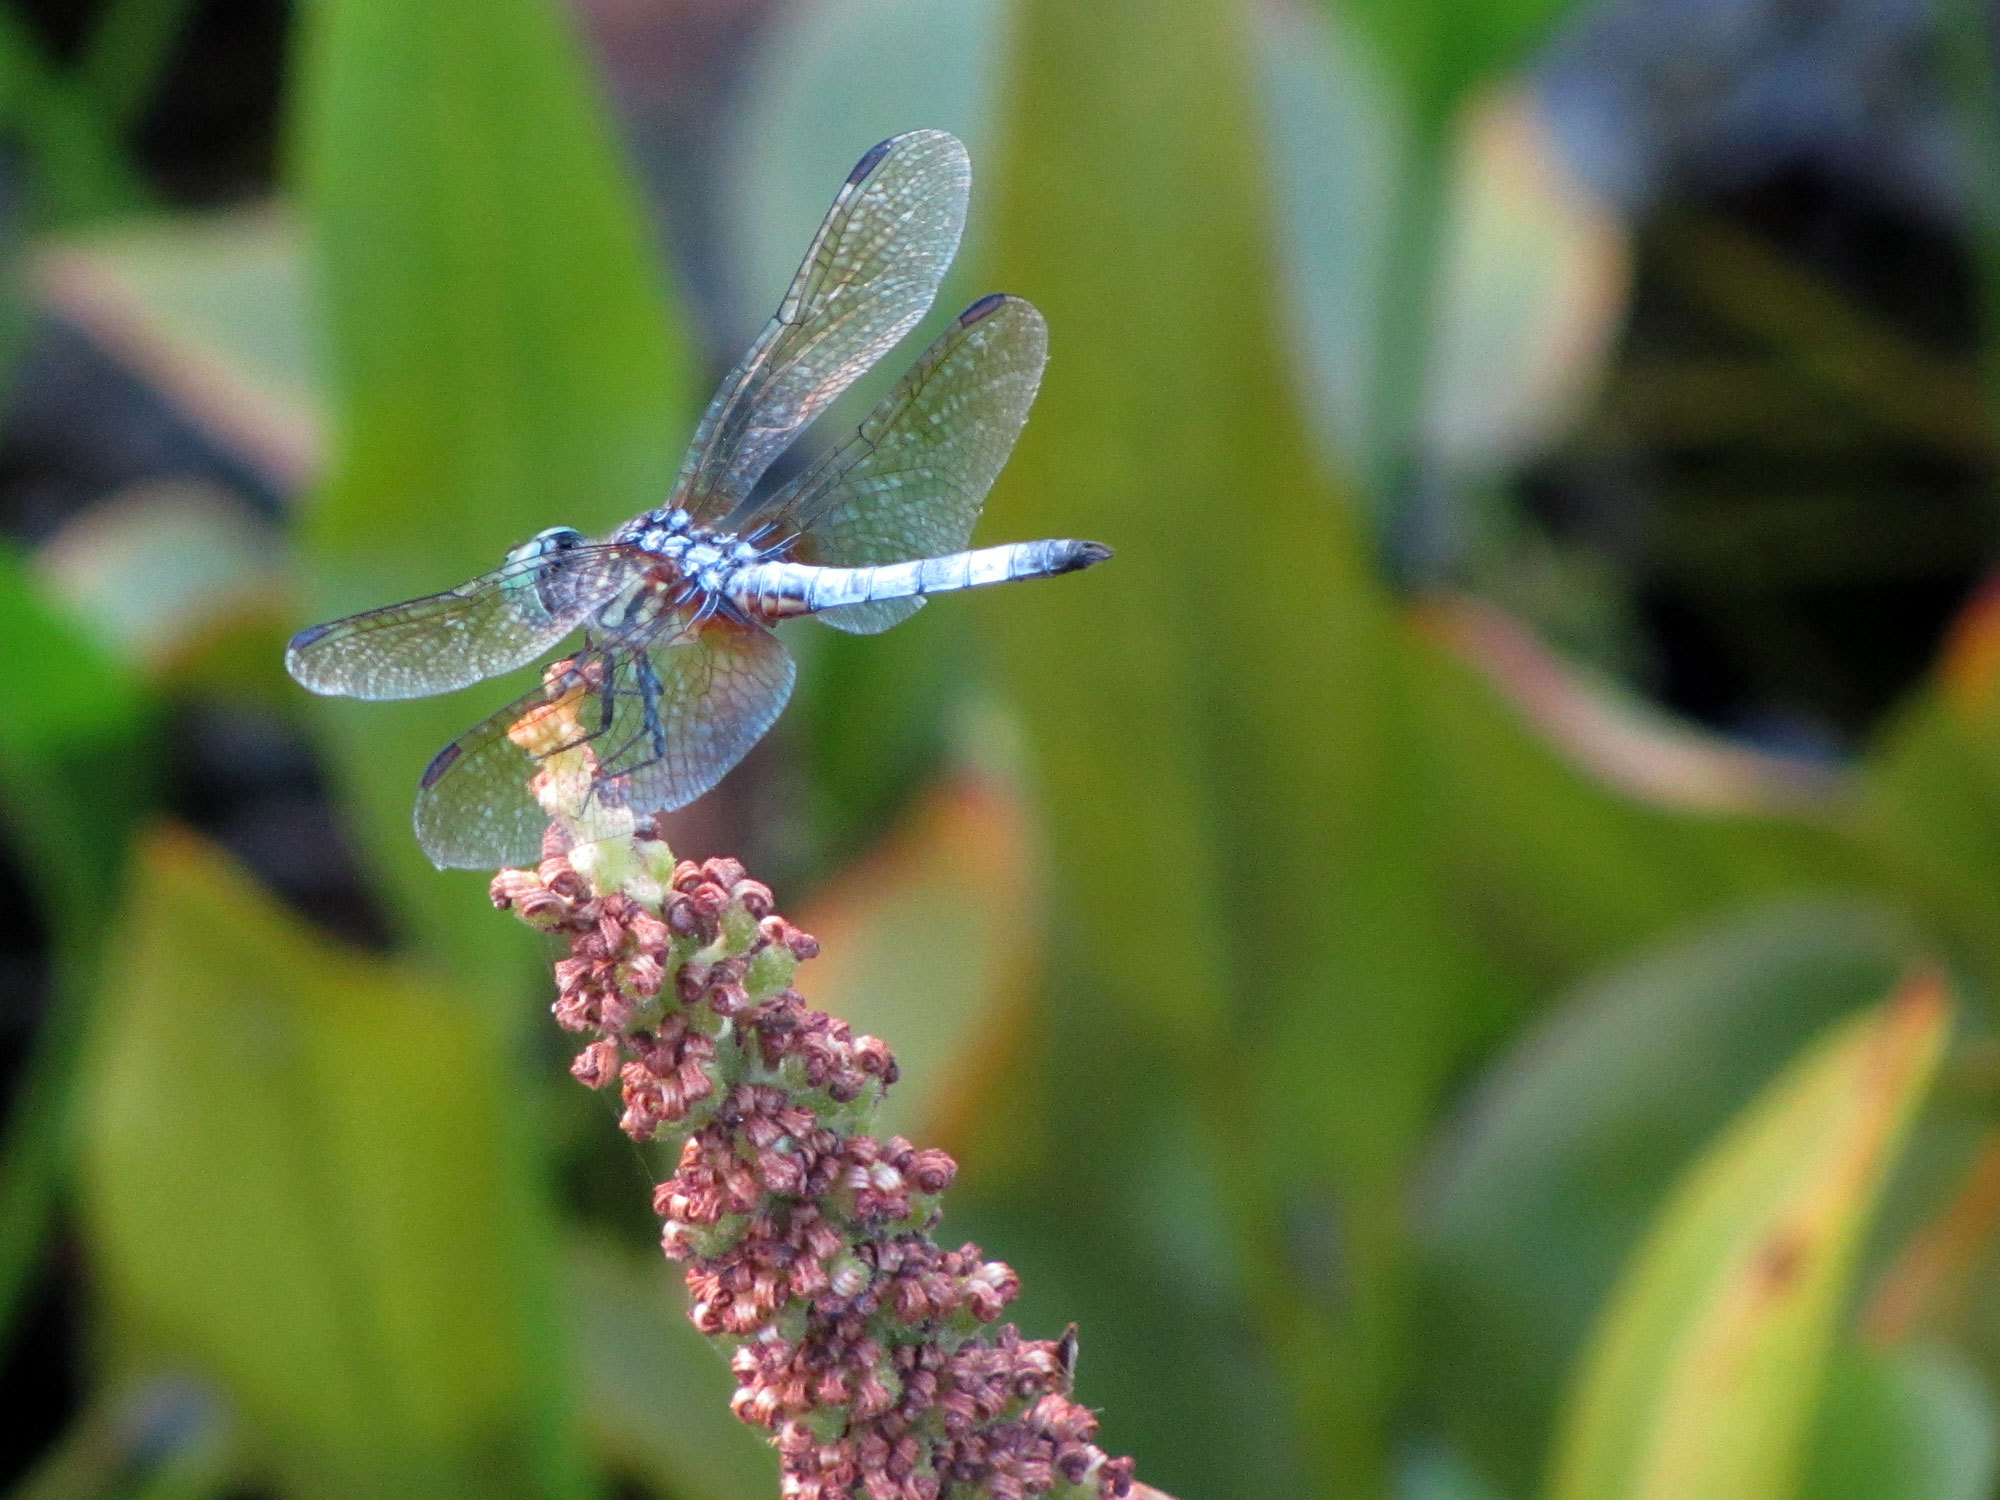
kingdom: Animalia
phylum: Arthropoda
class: Insecta
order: Odonata
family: Libellulidae
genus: Pachydiplax
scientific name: Pachydiplax longipennis
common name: Blue dasher
